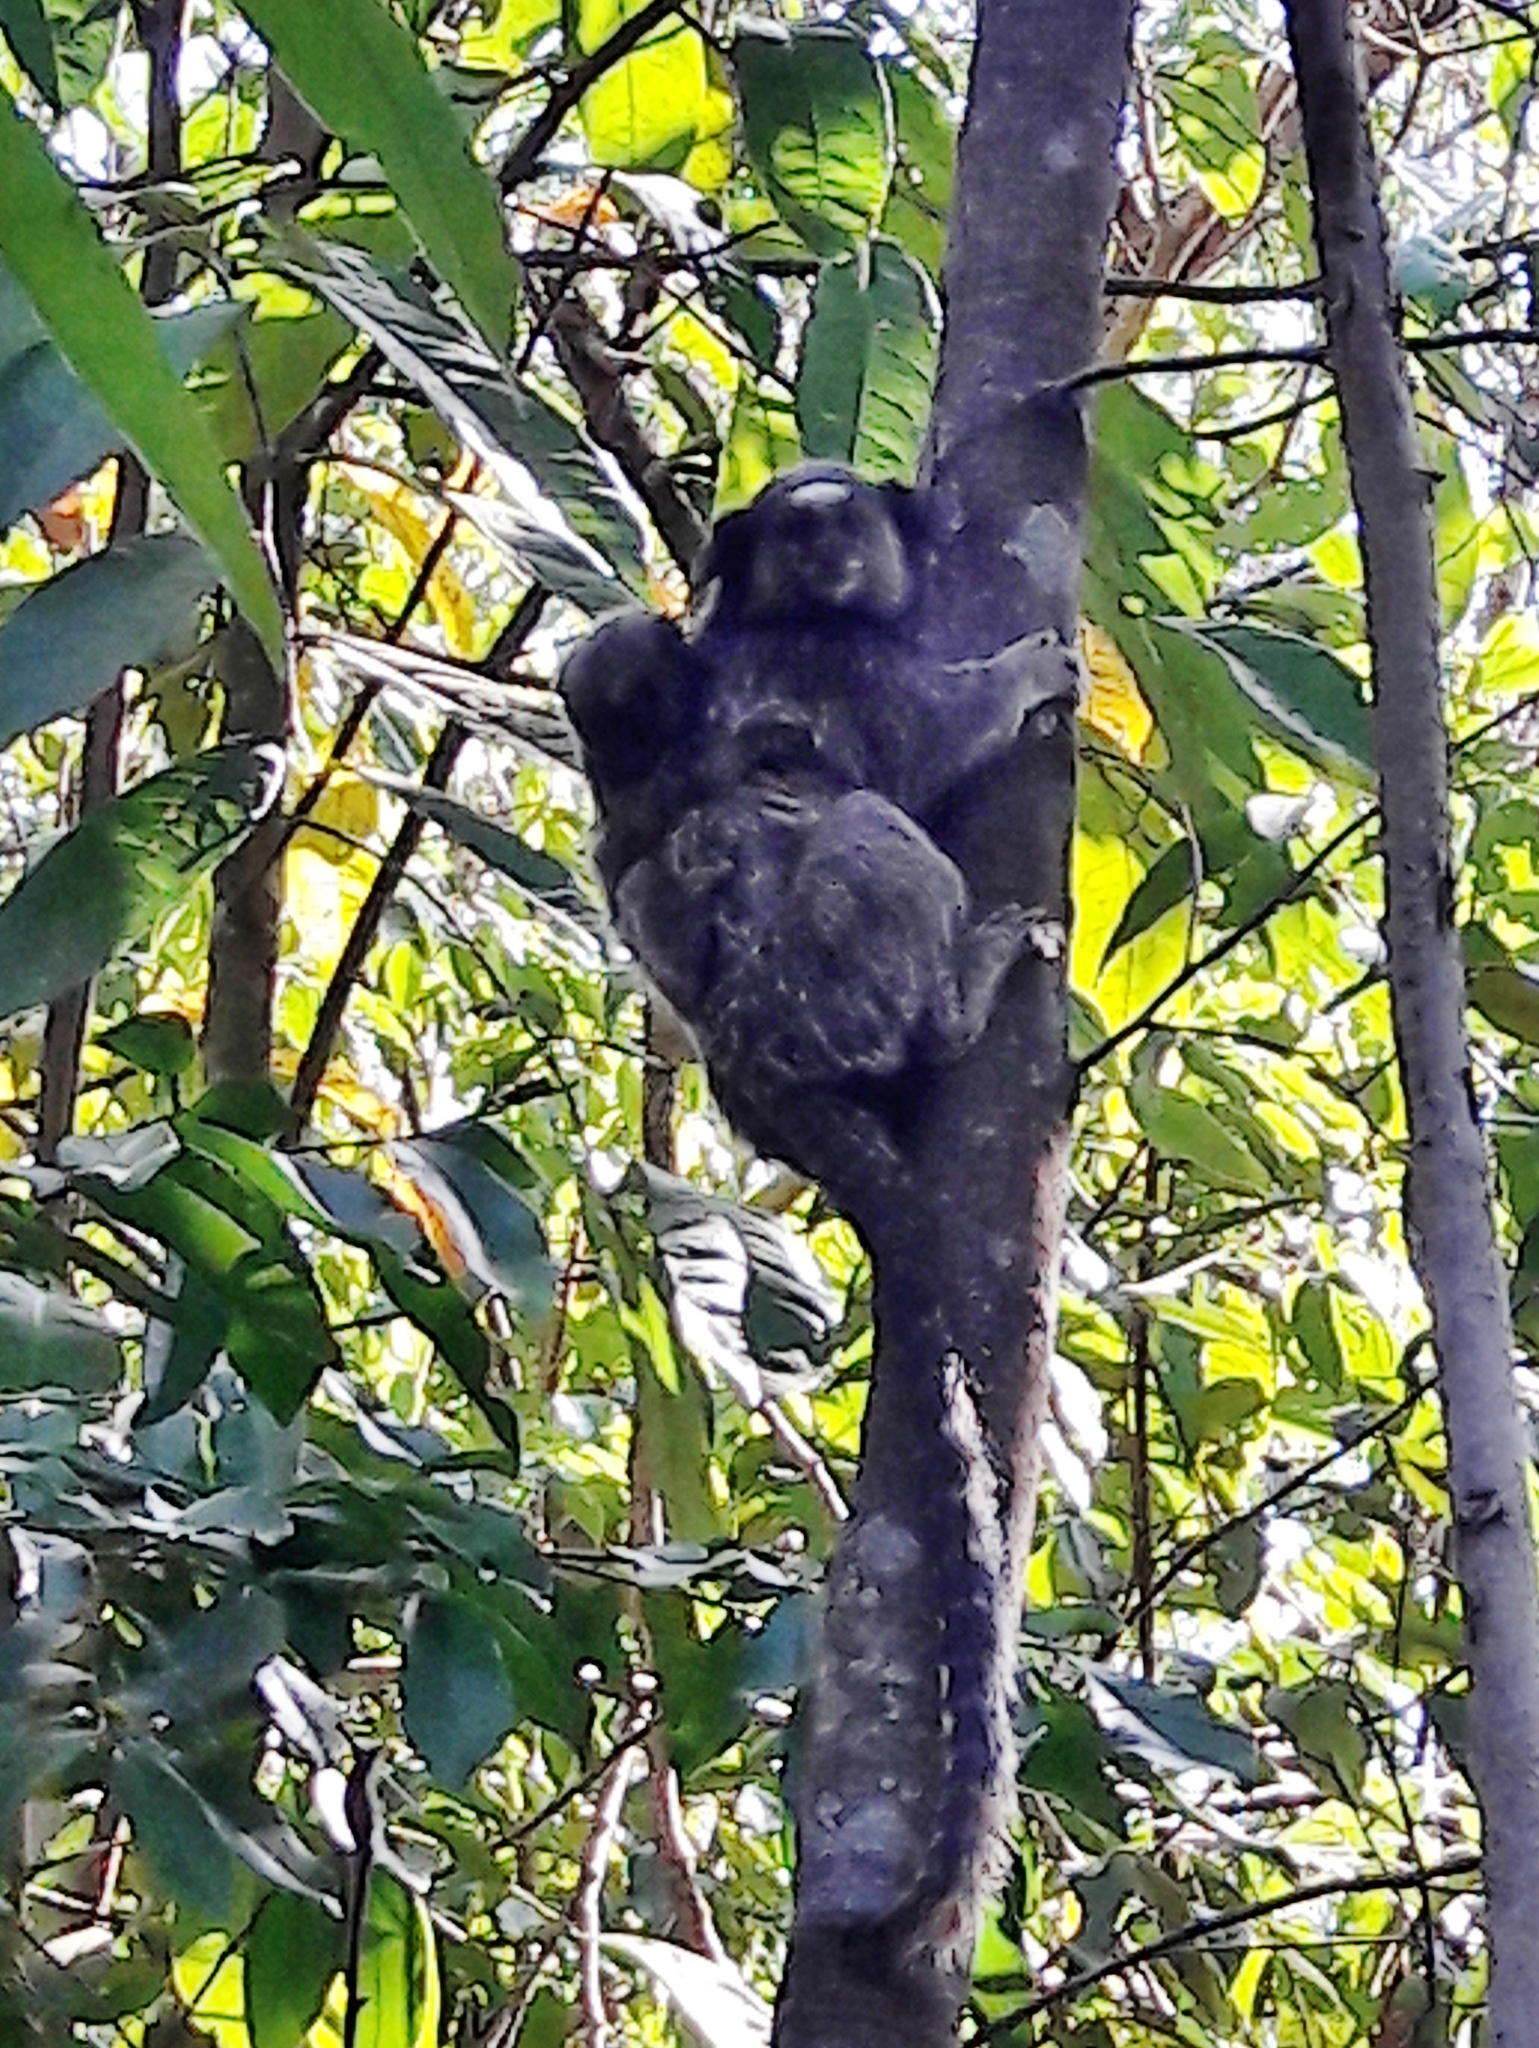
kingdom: Animalia
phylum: Chordata
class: Mammalia
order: Primates
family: Callitrichidae
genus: Callithrix
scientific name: Callithrix penicillata
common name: Black-tufted marmoset
